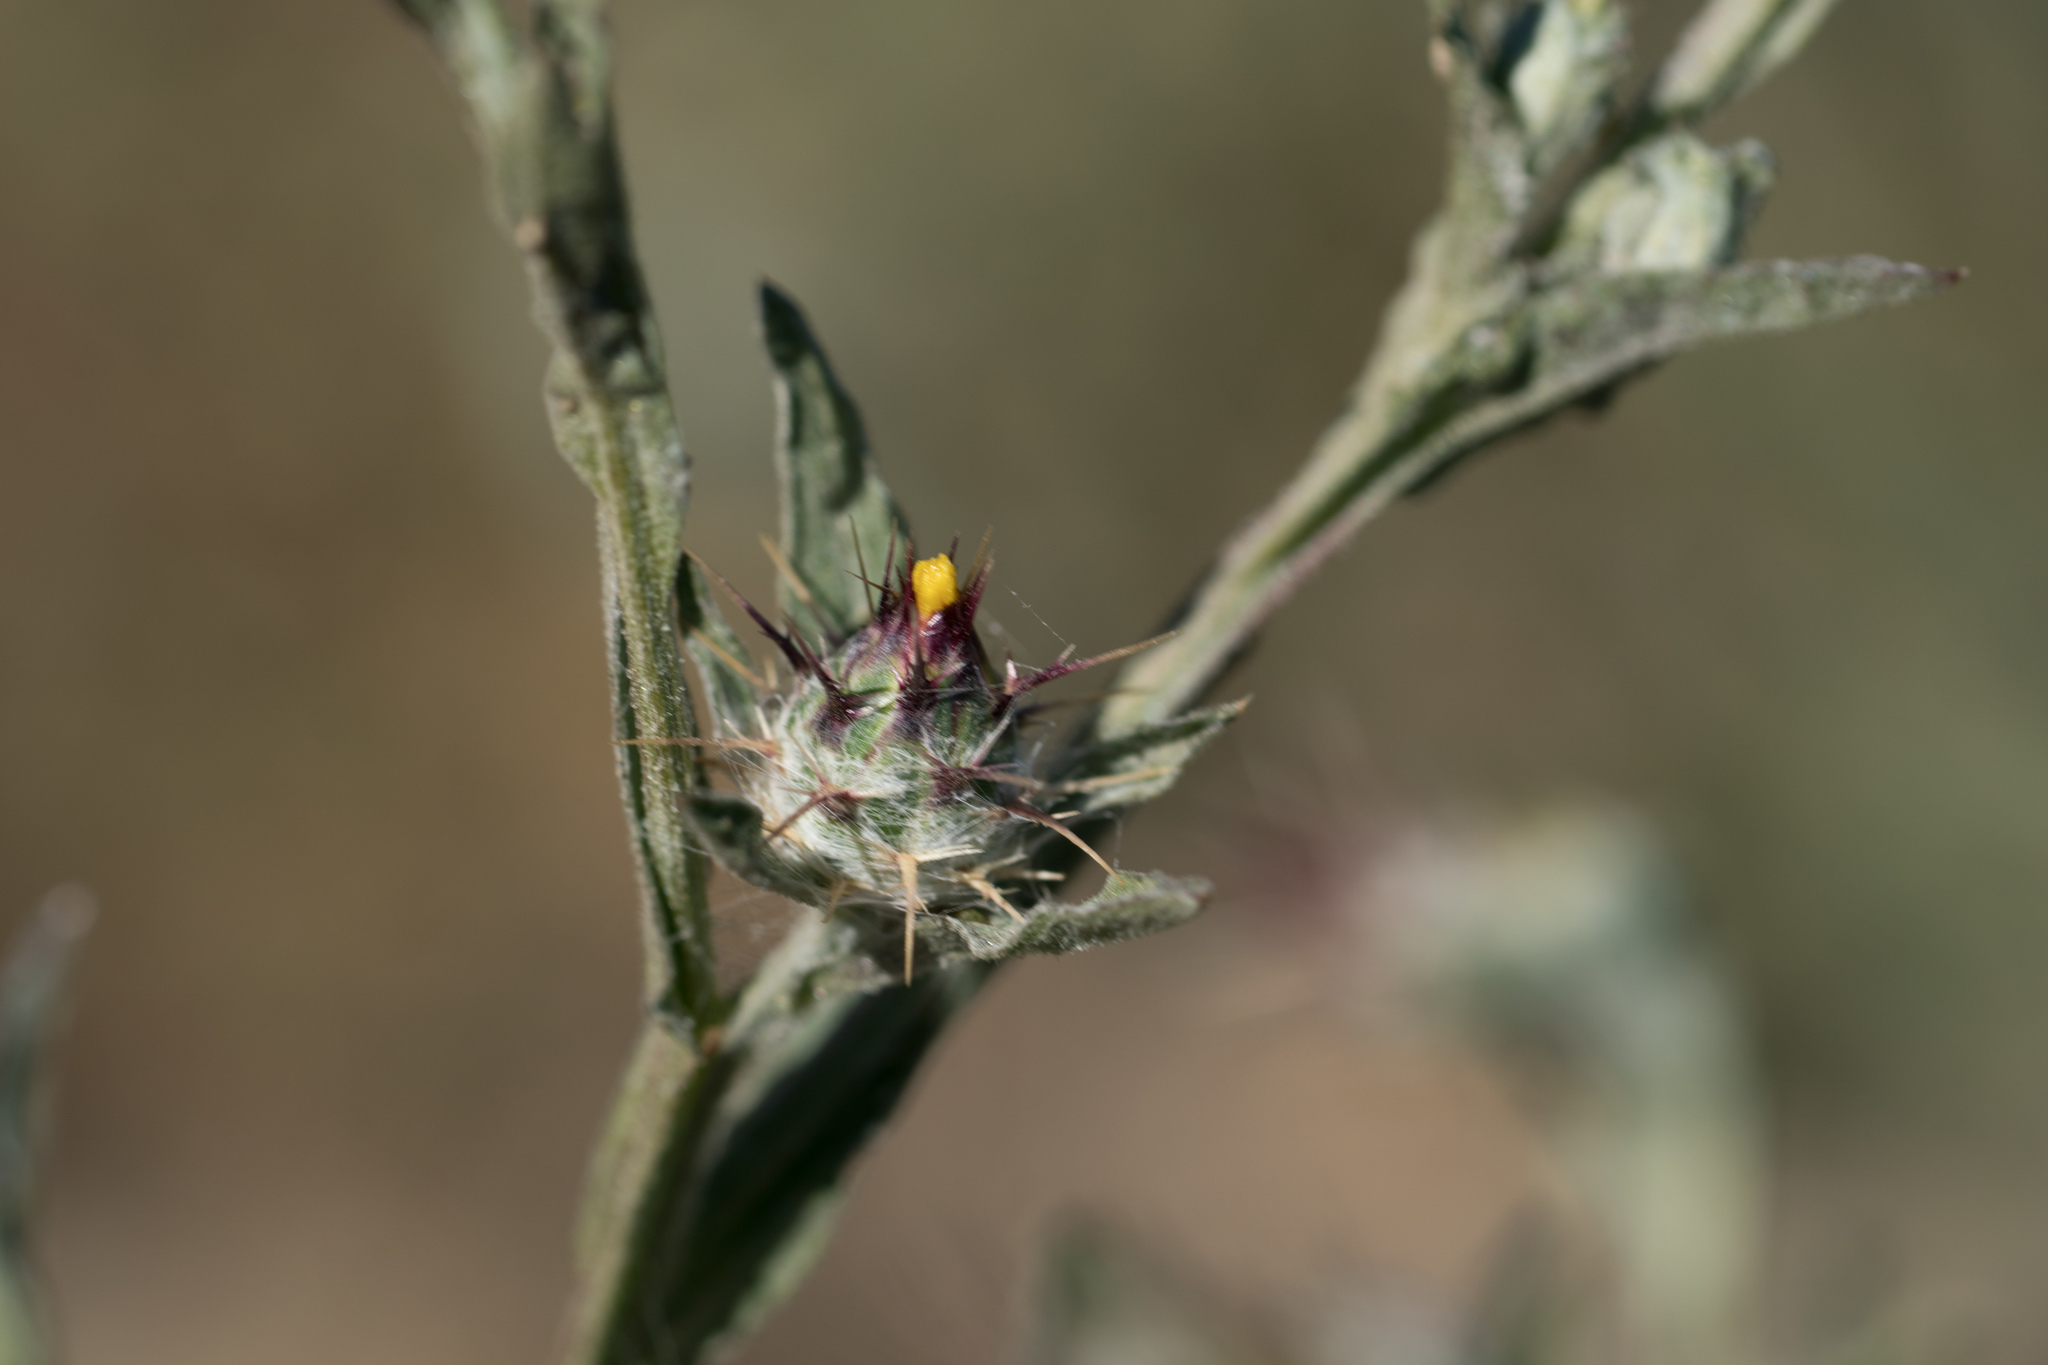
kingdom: Plantae
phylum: Tracheophyta
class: Magnoliopsida
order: Asterales
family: Asteraceae
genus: Centaurea
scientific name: Centaurea melitensis
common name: Maltese star-thistle
